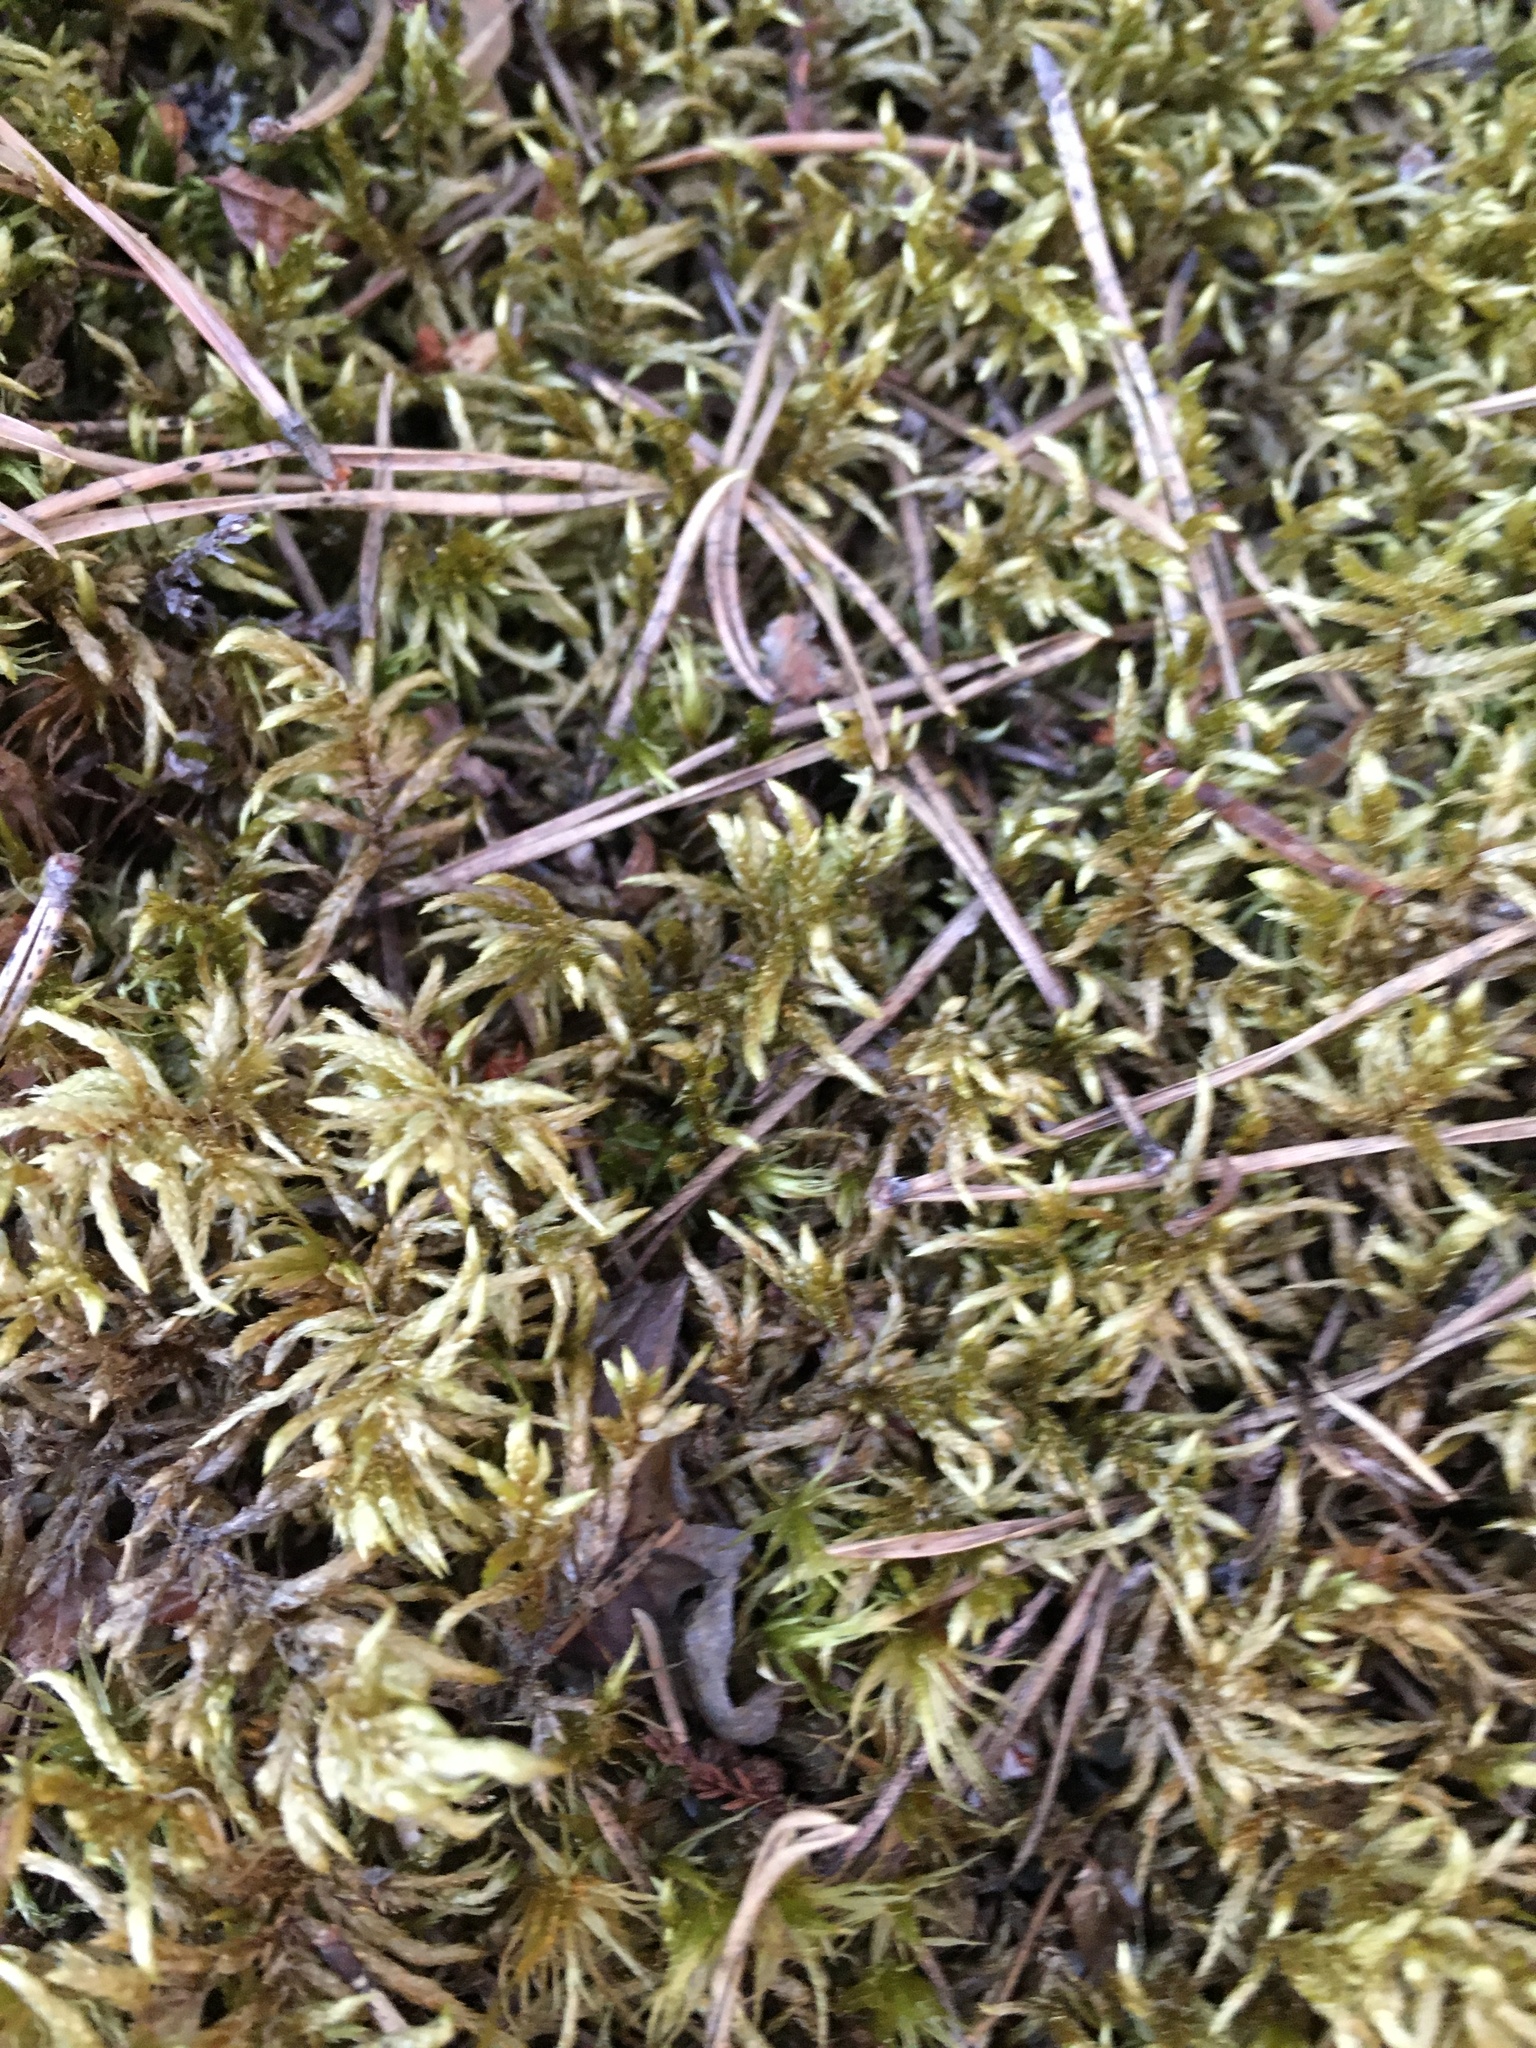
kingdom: Plantae
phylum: Bryophyta
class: Bryopsida
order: Hypnales
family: Hylocomiaceae
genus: Pleurozium
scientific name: Pleurozium schreberi
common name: Red-stemmed feather moss
